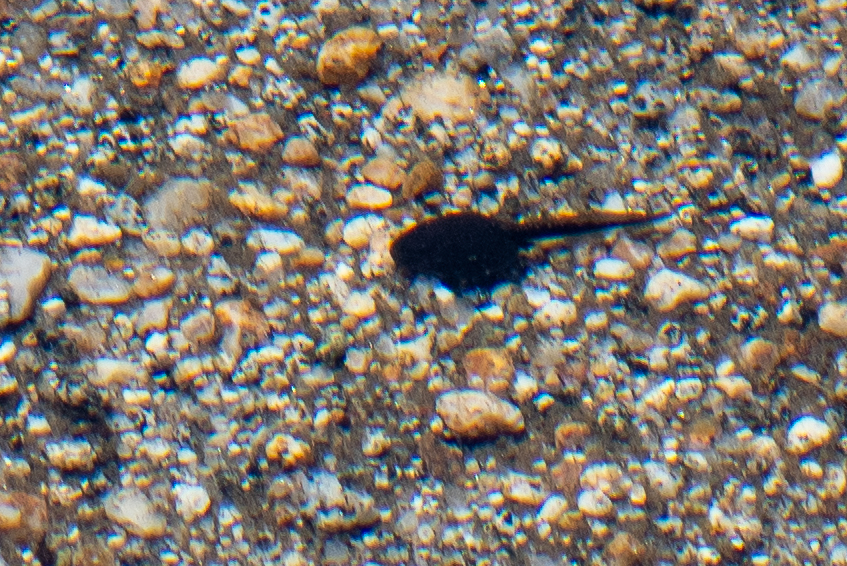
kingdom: Animalia
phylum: Chordata
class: Amphibia
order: Anura
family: Bufonidae
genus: Anaxyrus
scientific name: Anaxyrus boreas
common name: Western toad
